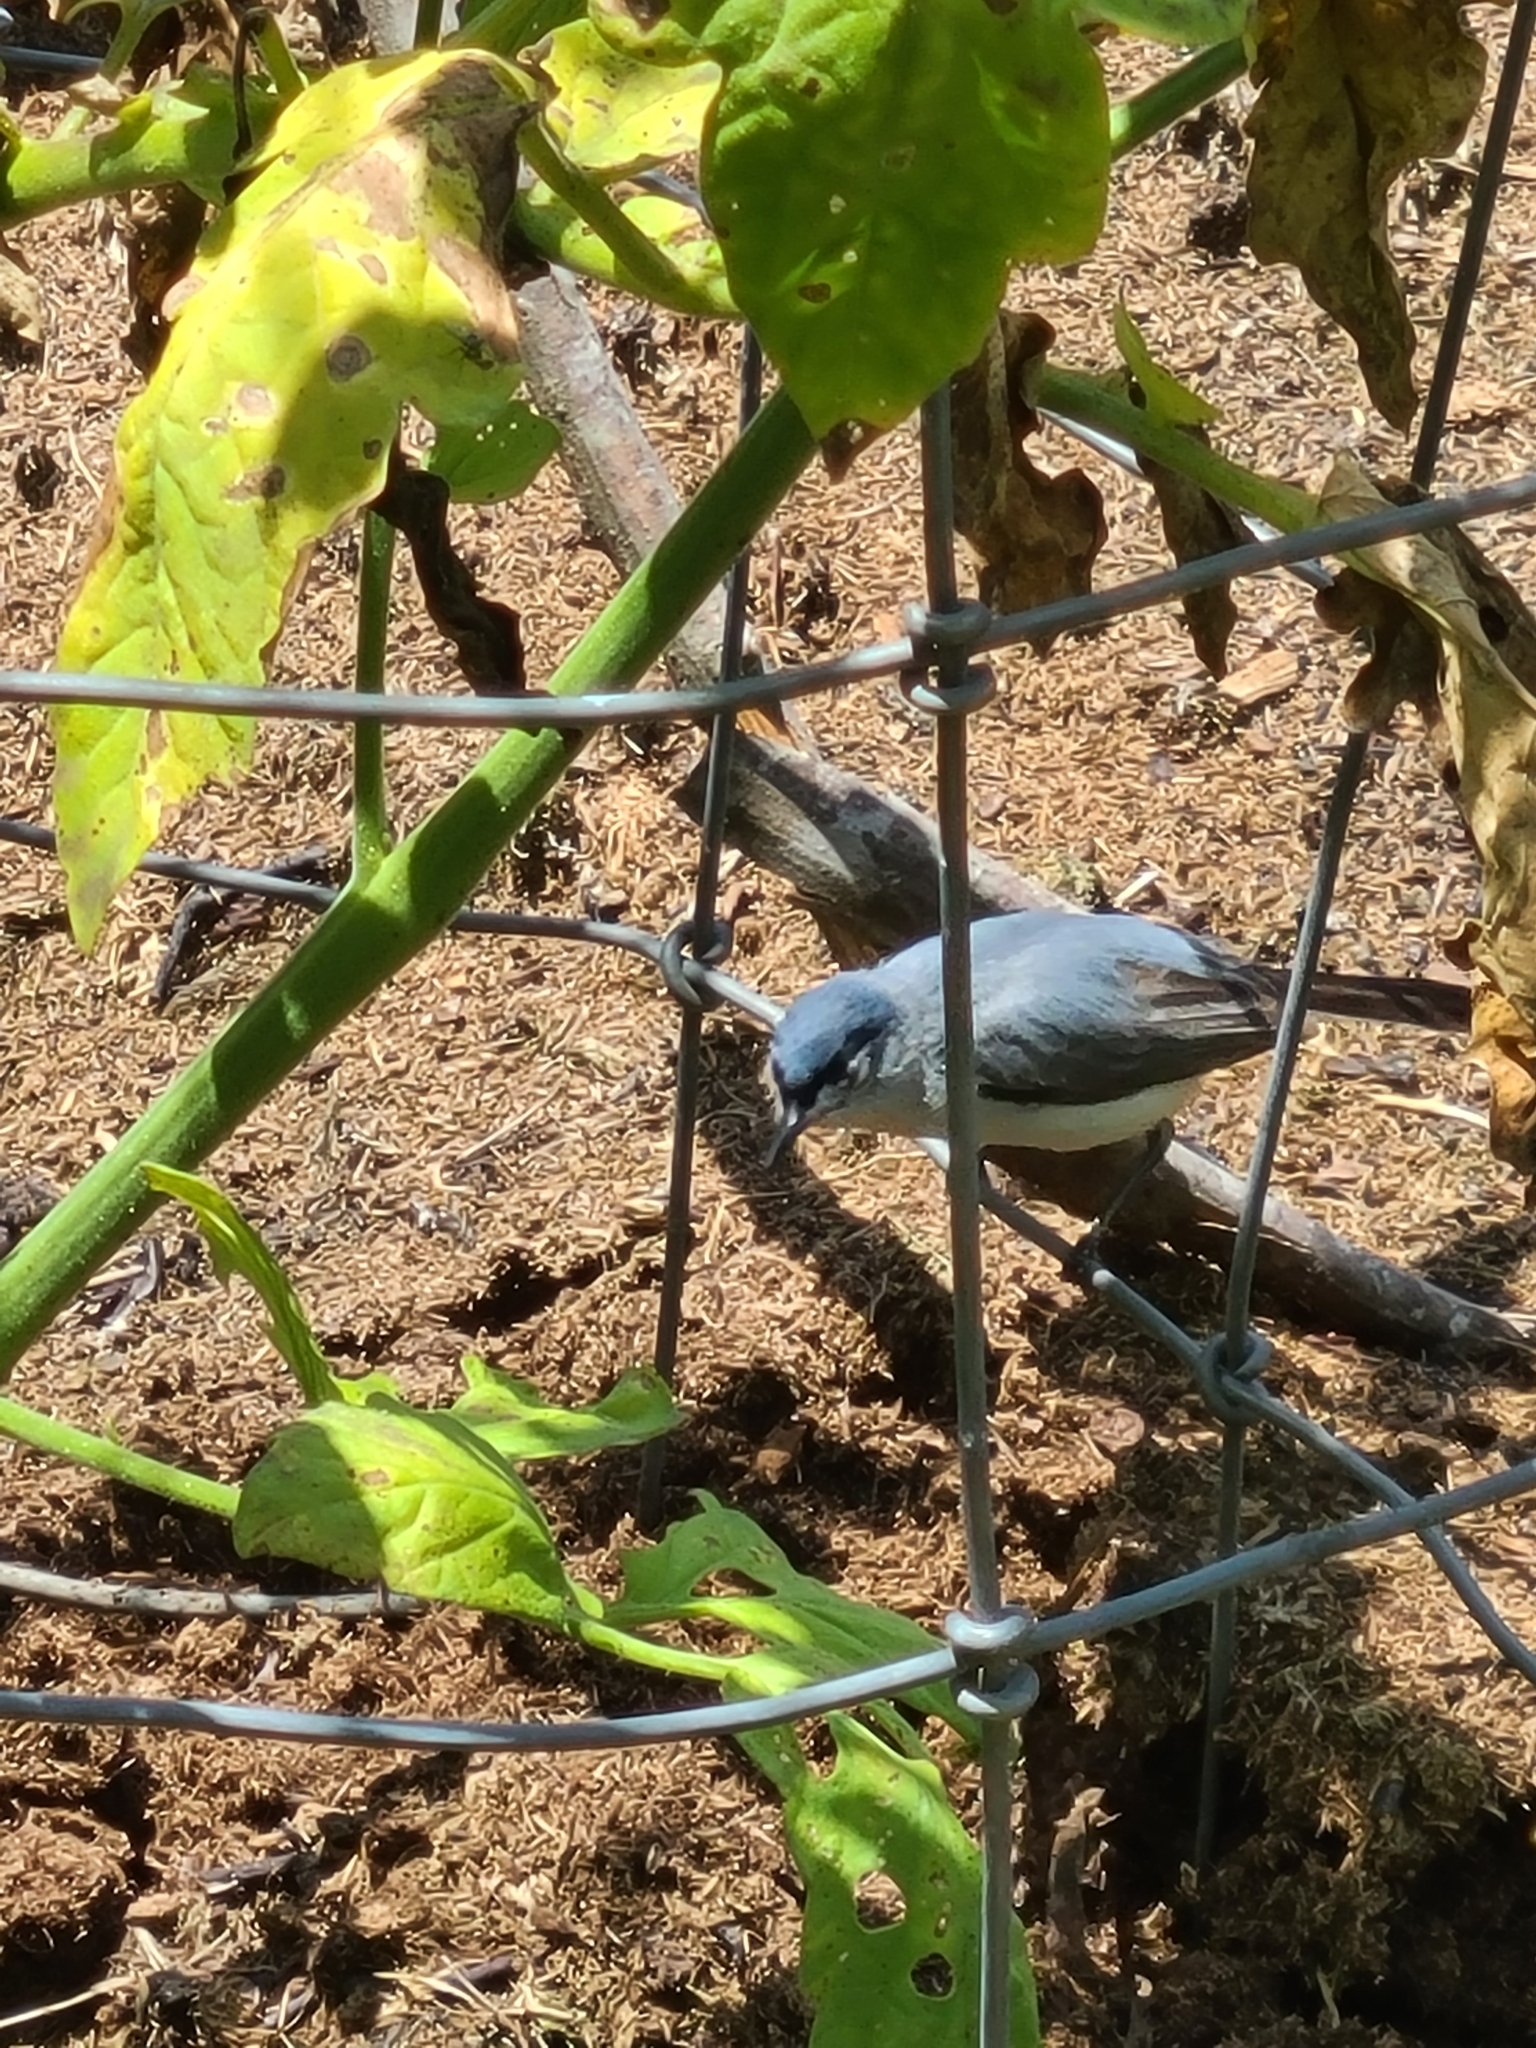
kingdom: Animalia
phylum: Chordata
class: Aves
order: Passeriformes
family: Polioptilidae
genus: Polioptila
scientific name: Polioptila caerulea
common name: Blue-gray gnatcatcher
